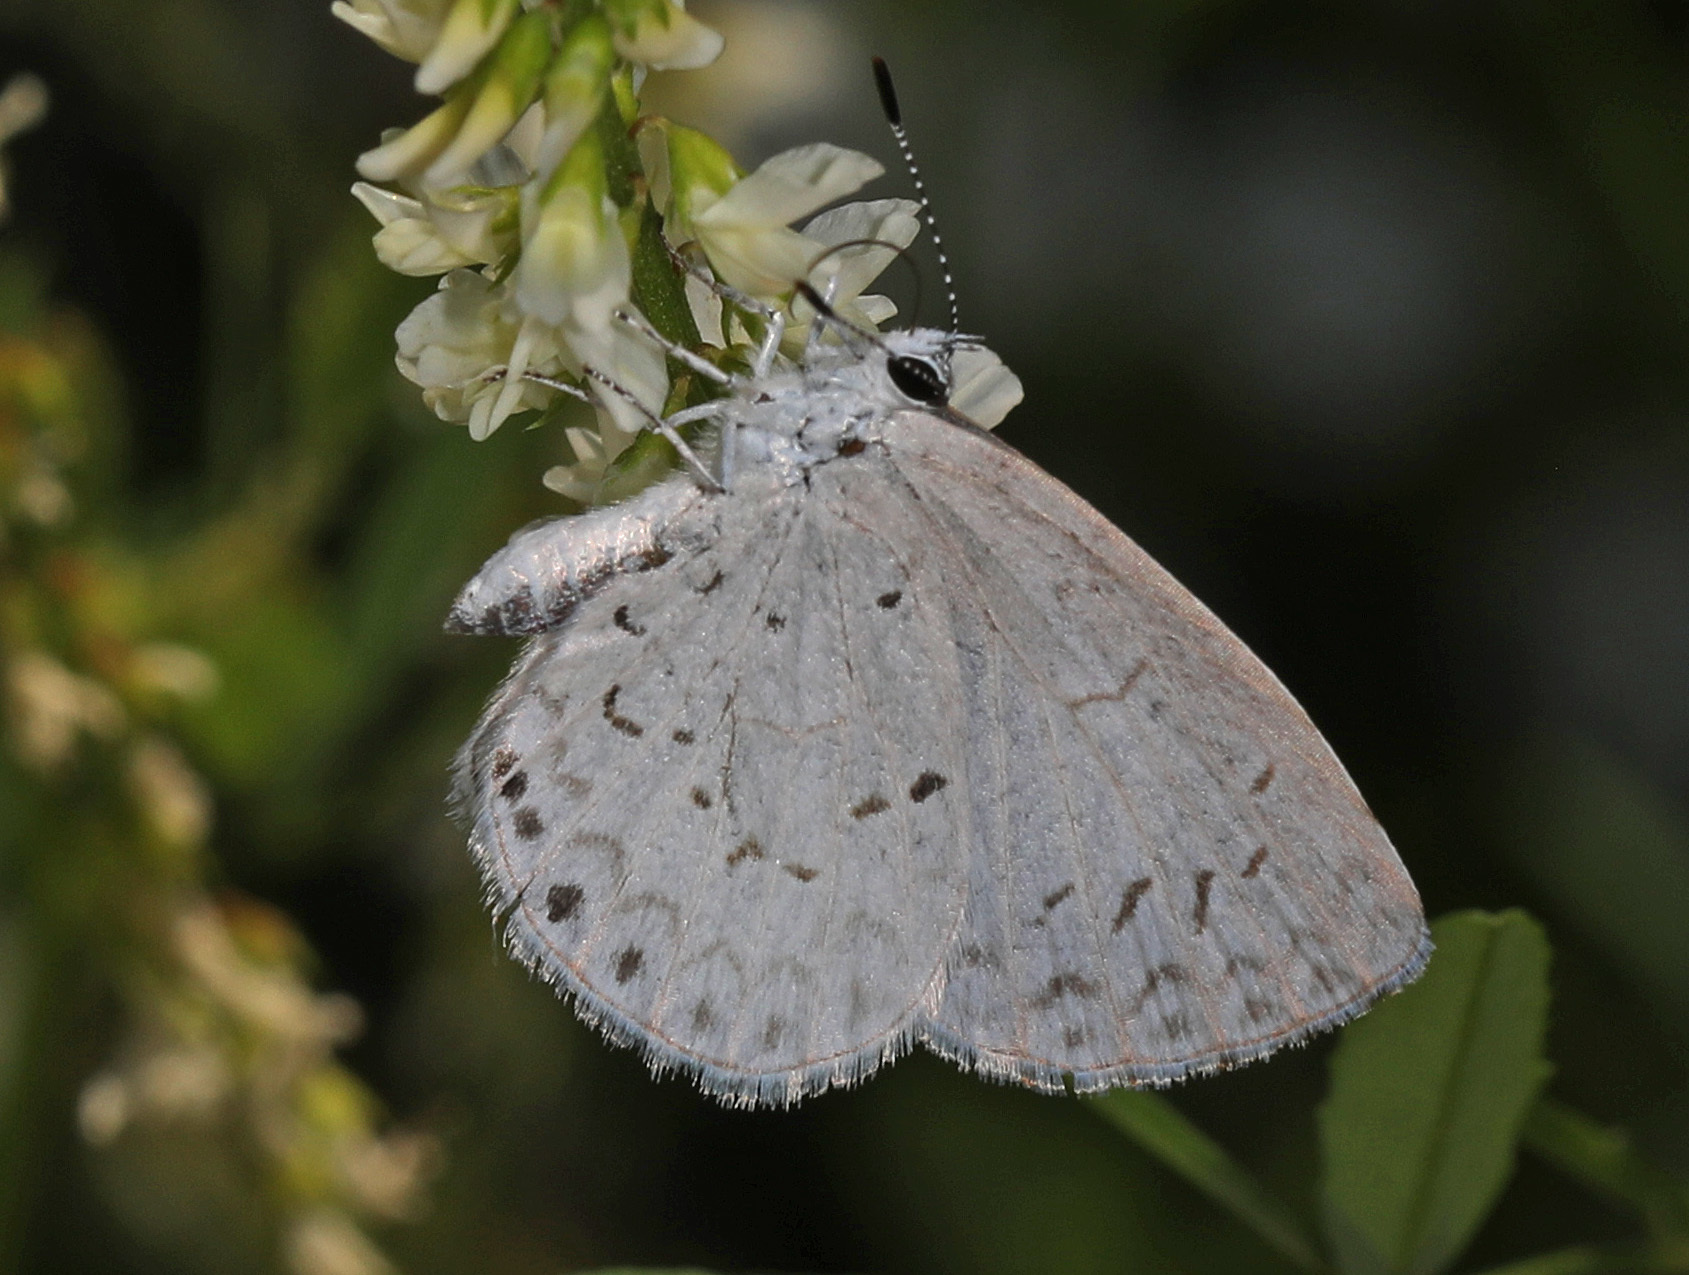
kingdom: Animalia
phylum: Arthropoda
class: Insecta
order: Lepidoptera
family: Lycaenidae
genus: Cyaniris
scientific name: Cyaniris neglecta
